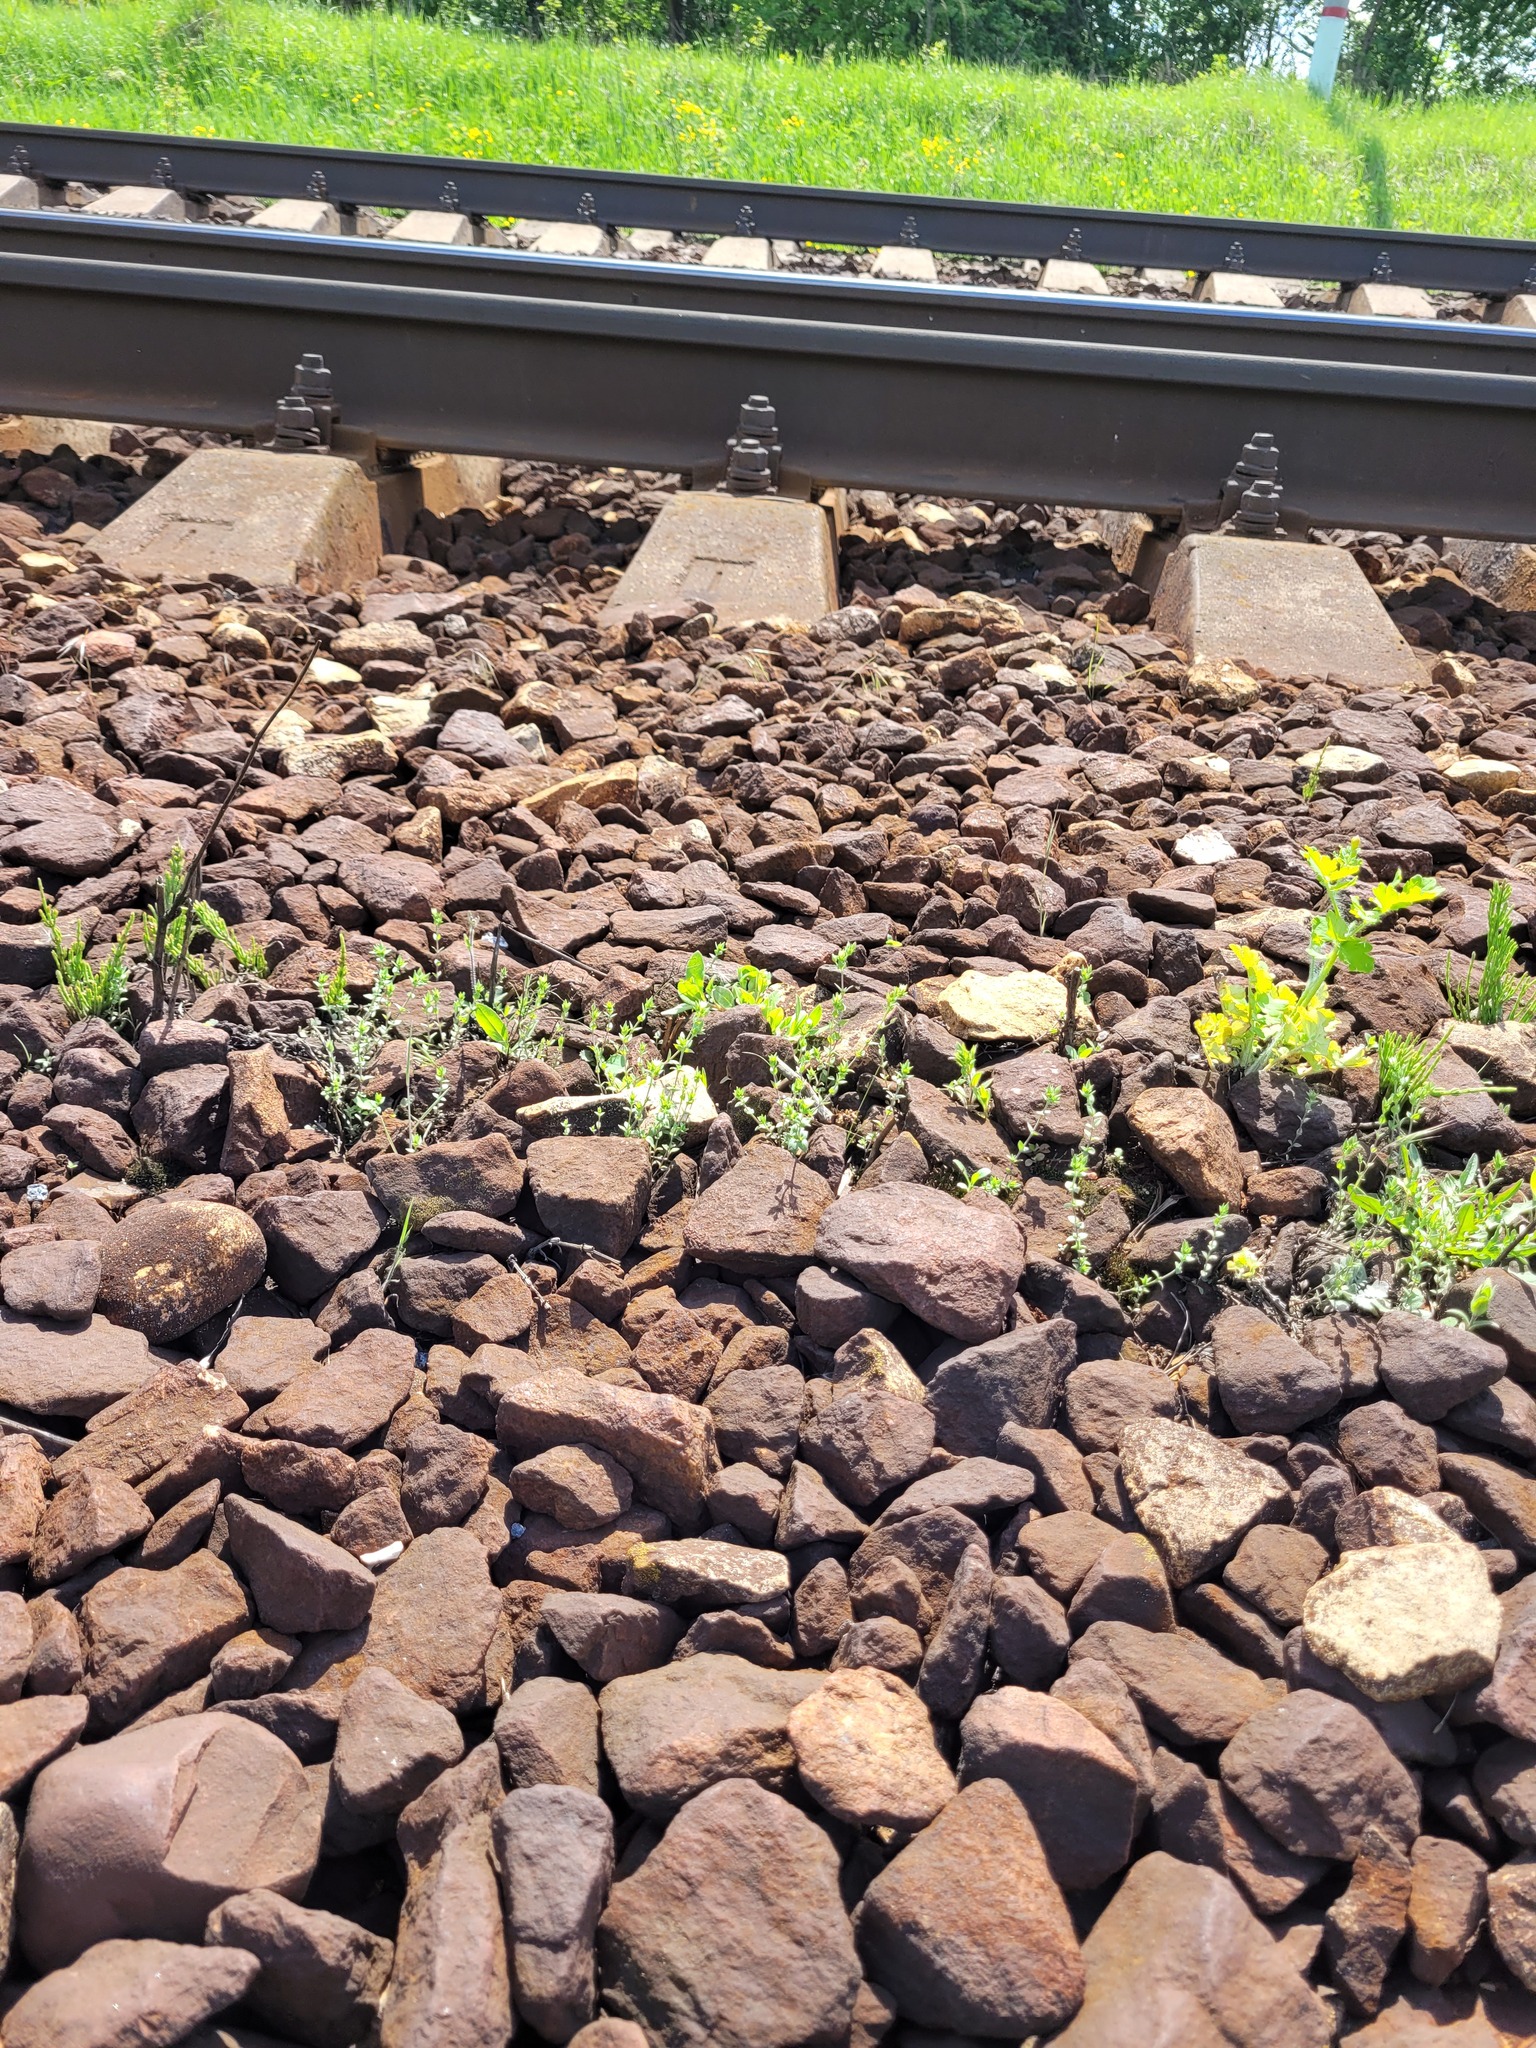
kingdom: Plantae
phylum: Tracheophyta
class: Magnoliopsida
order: Caryophyllales
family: Caryophyllaceae
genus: Arenaria
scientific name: Arenaria serpyllifolia
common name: Thyme-leaved sandwort
